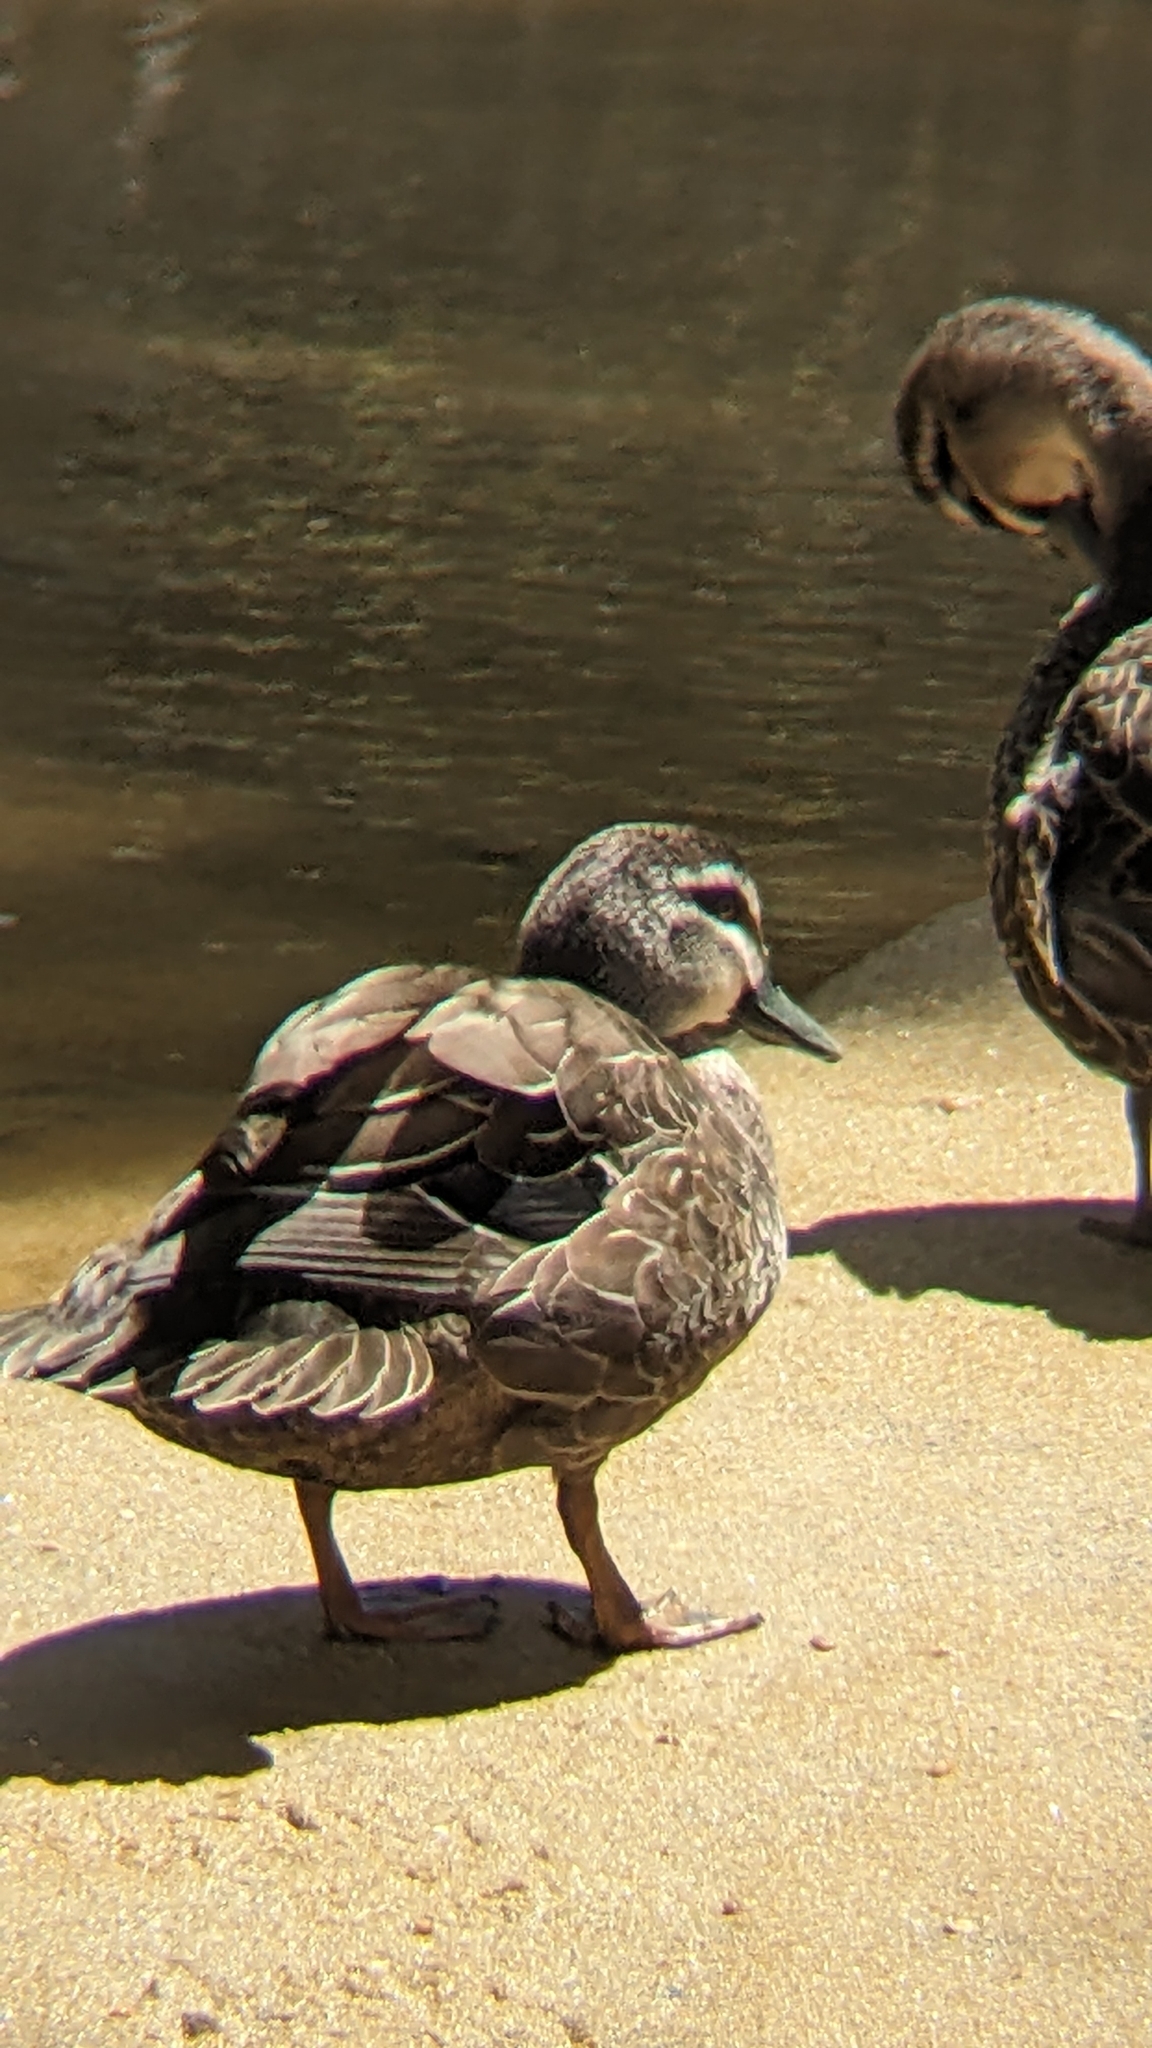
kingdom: Animalia
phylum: Chordata
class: Aves
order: Anseriformes
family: Anatidae
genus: Anas
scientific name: Anas
